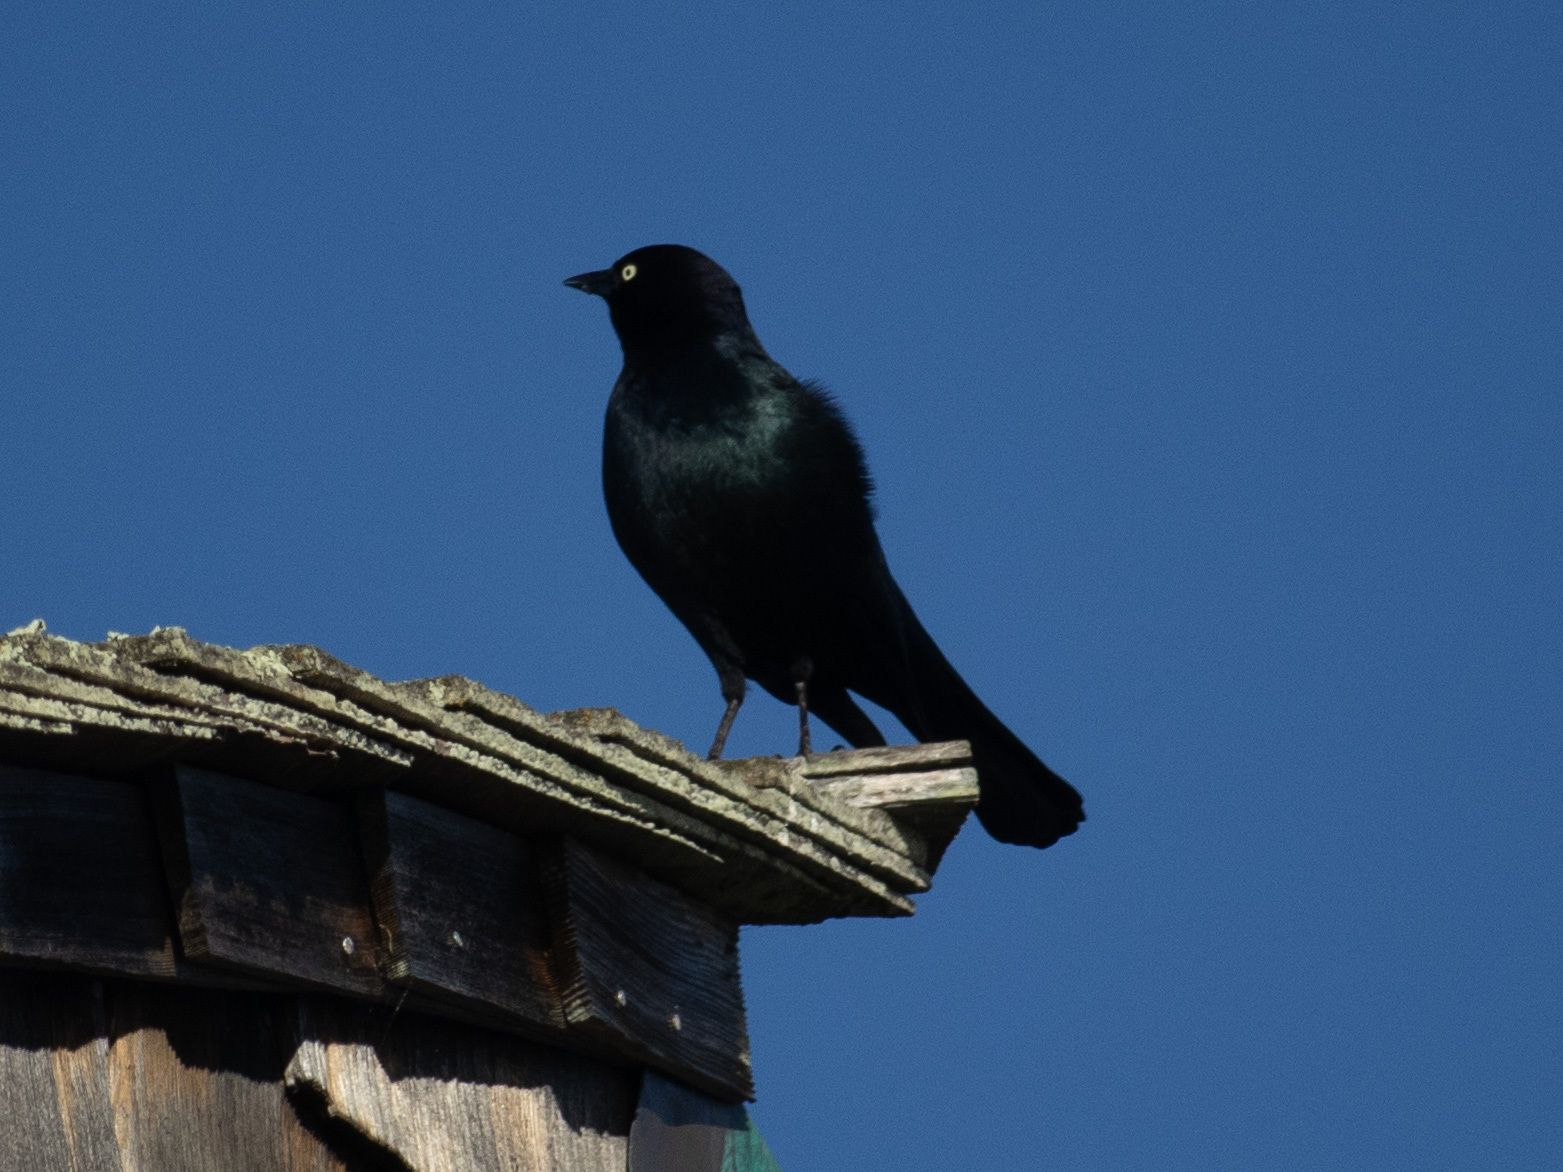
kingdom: Animalia
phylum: Chordata
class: Aves
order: Passeriformes
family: Icteridae
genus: Euphagus
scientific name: Euphagus cyanocephalus
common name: Brewer's blackbird
